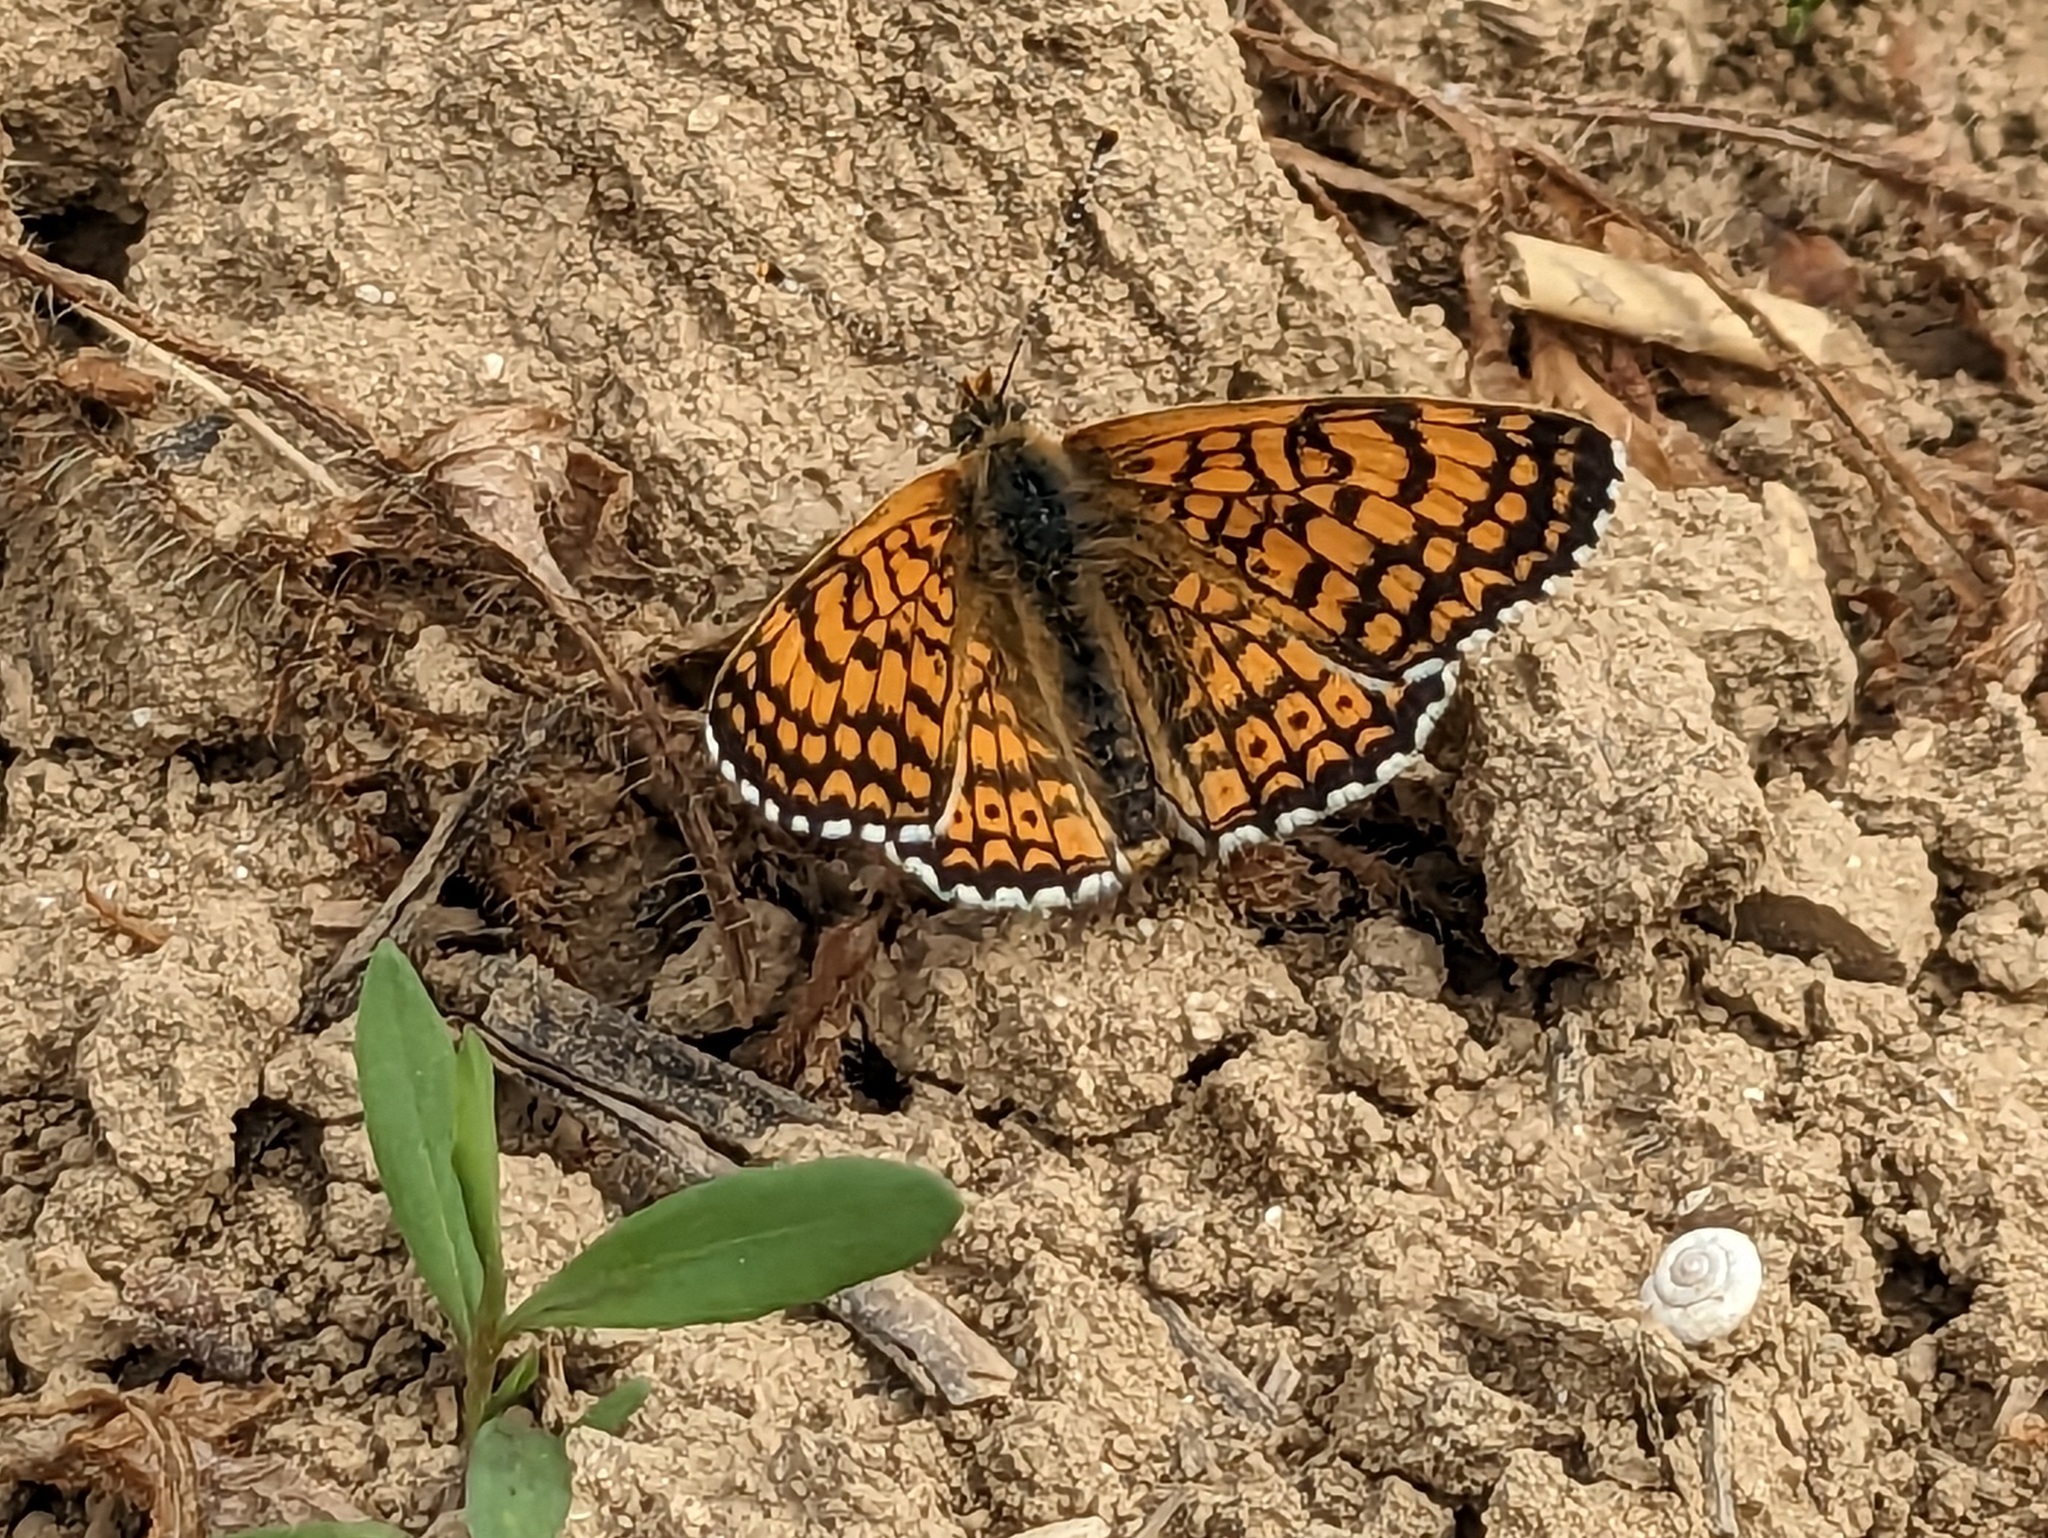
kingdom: Animalia
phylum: Arthropoda
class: Insecta
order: Lepidoptera
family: Nymphalidae
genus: Melitaea
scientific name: Melitaea cinxia
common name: Glanville fritillary
